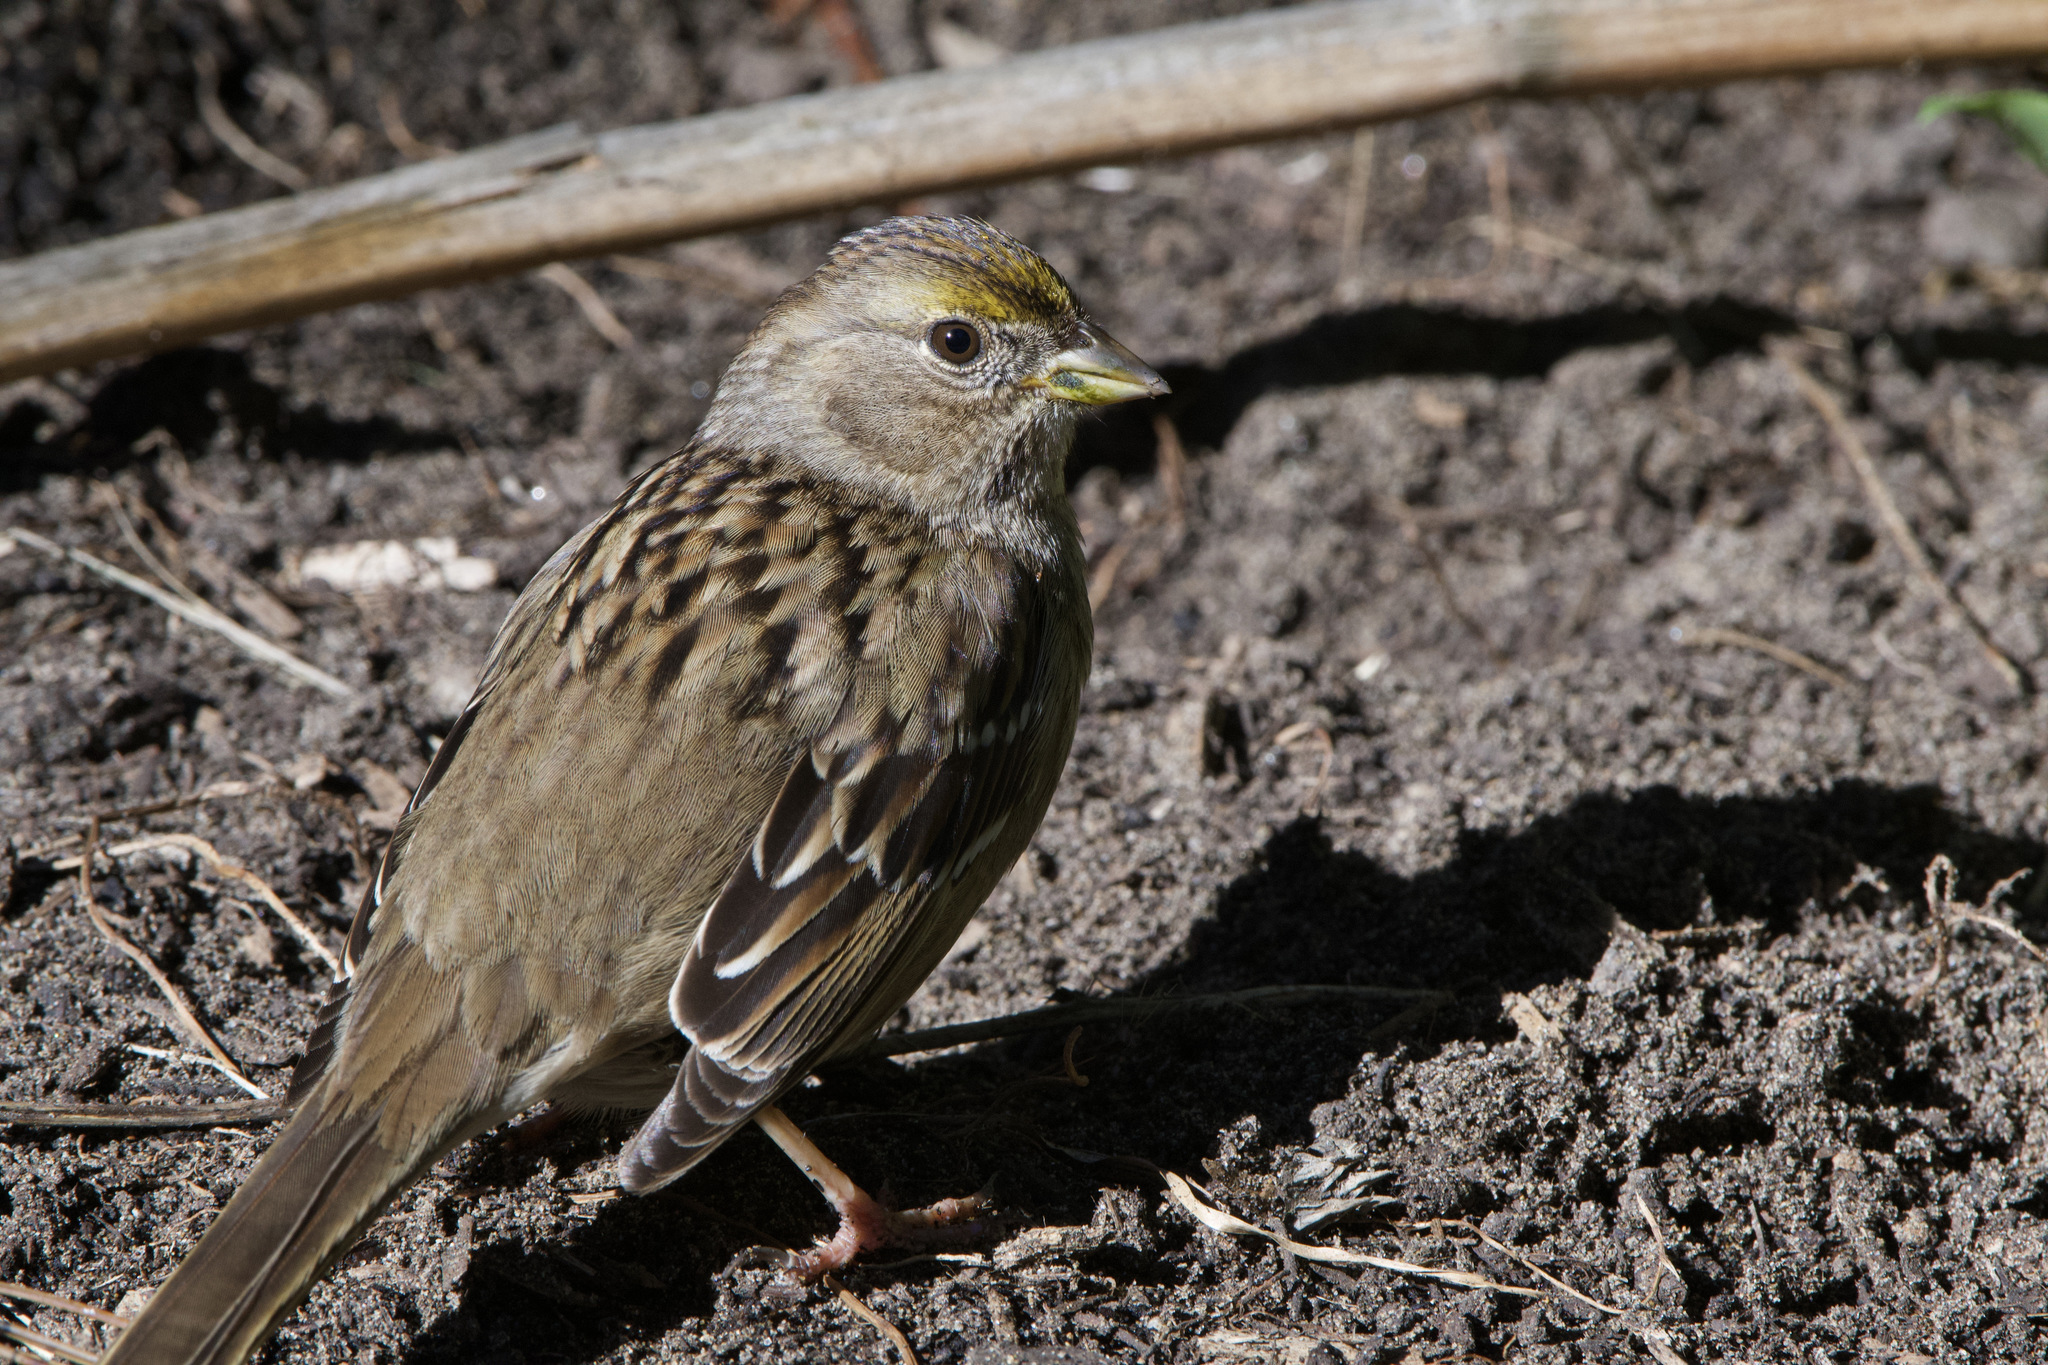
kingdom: Animalia
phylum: Chordata
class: Aves
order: Passeriformes
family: Passerellidae
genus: Zonotrichia
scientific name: Zonotrichia atricapilla
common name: Golden-crowned sparrow
